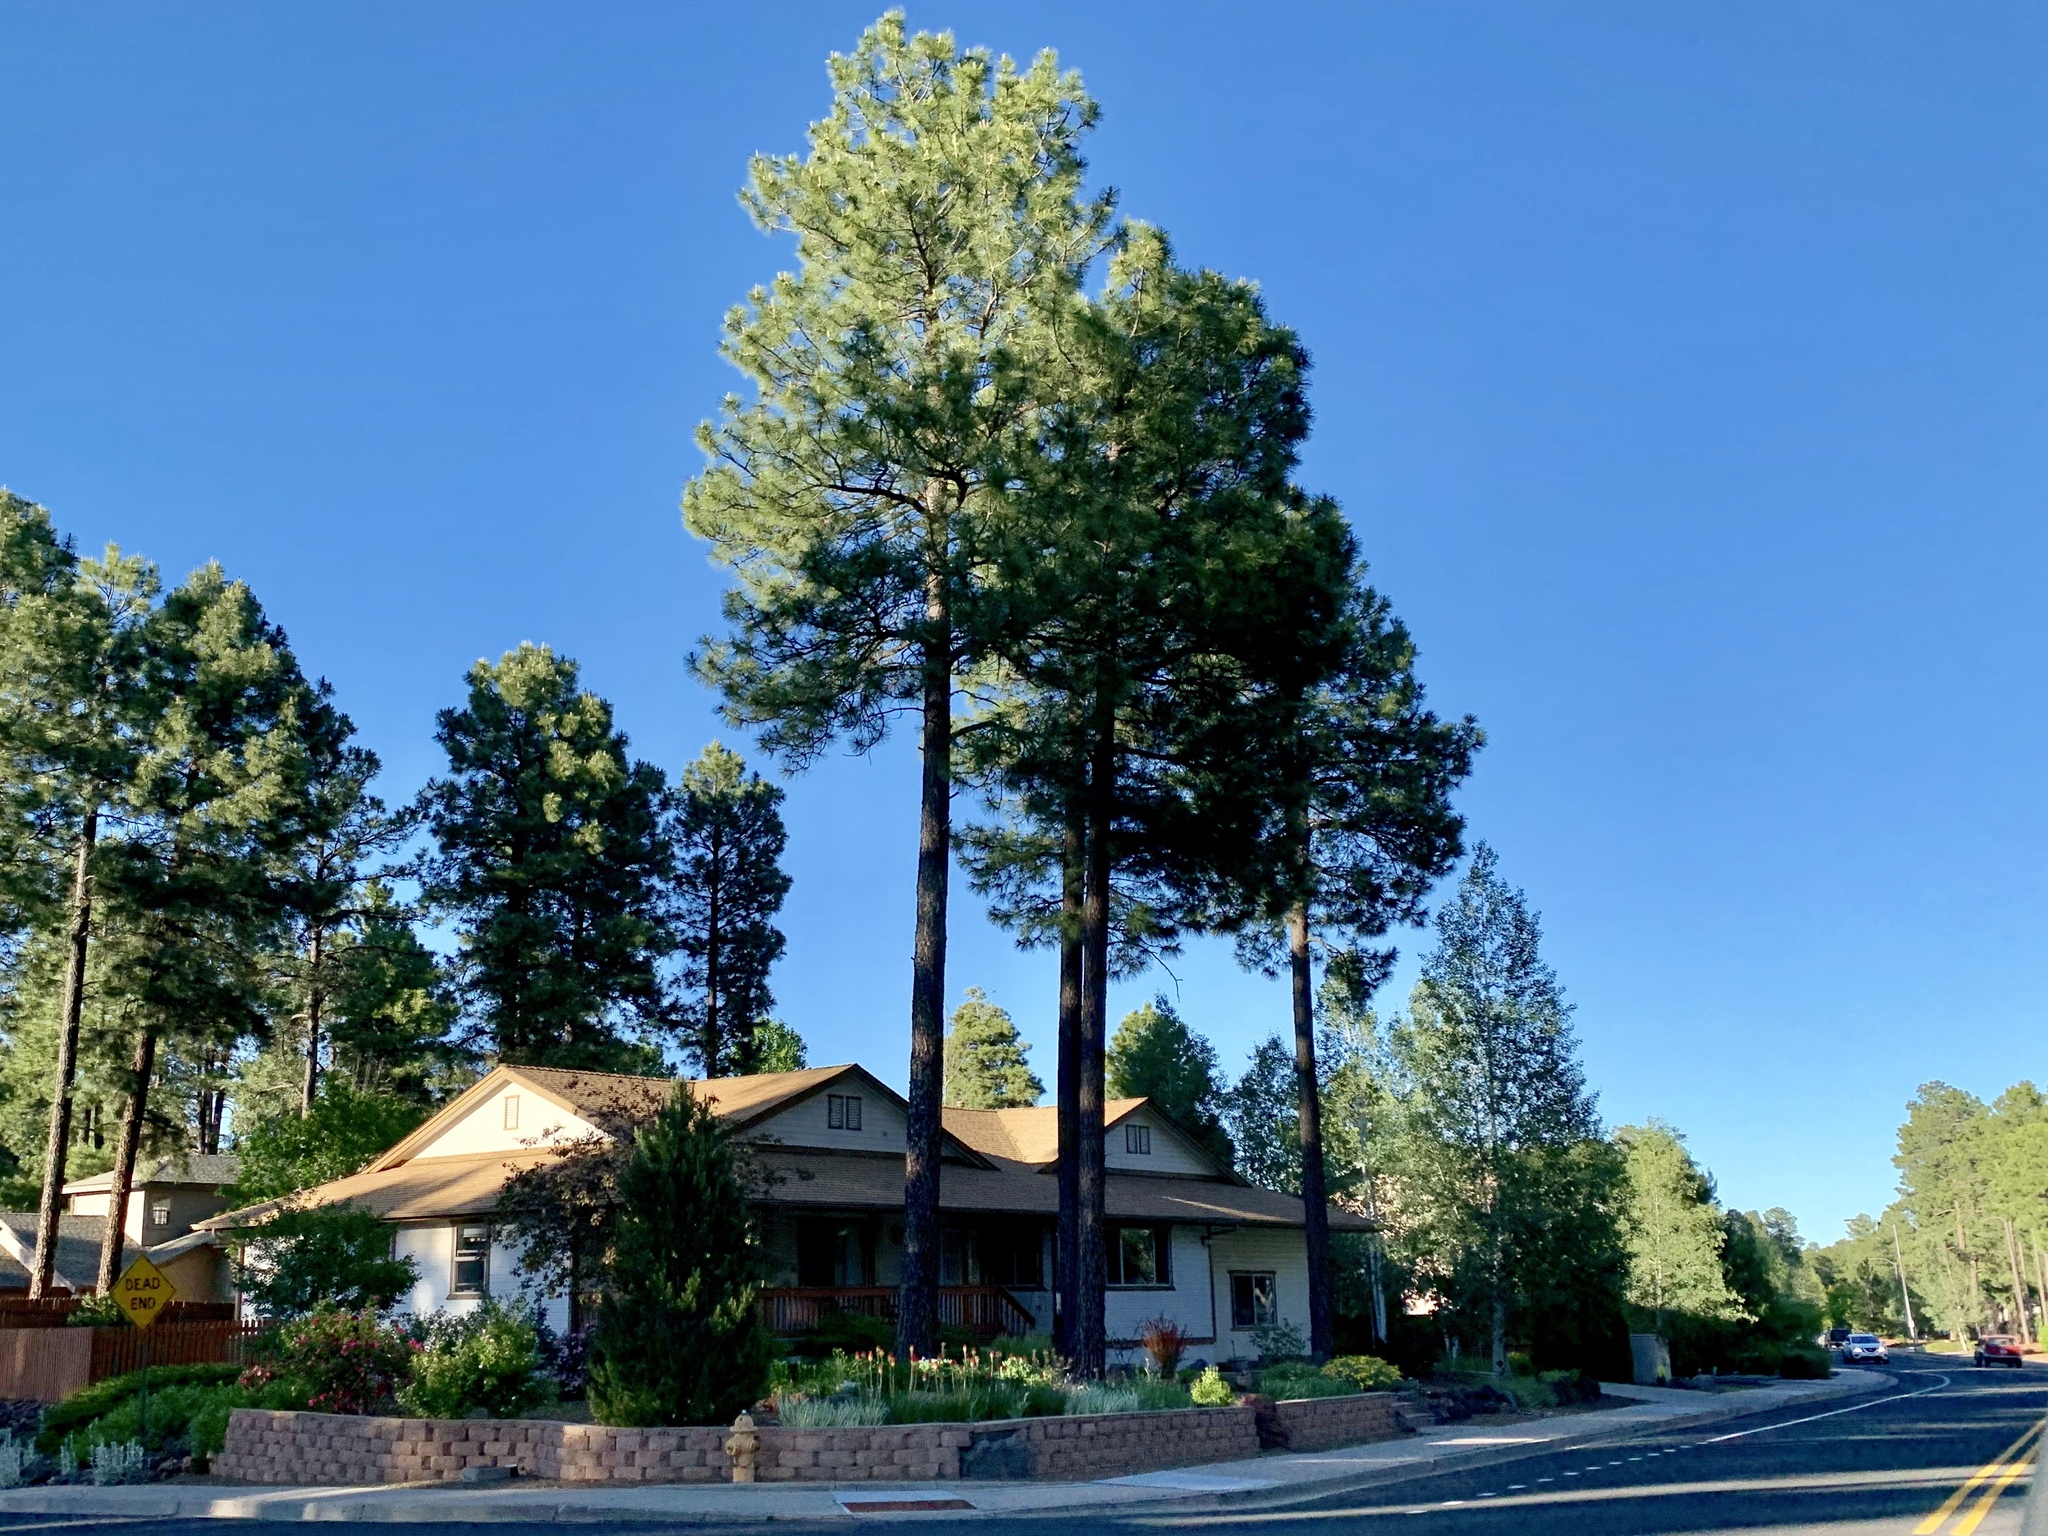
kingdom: Plantae
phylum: Tracheophyta
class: Pinopsida
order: Pinales
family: Pinaceae
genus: Pinus
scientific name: Pinus ponderosa
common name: Western yellow-pine
